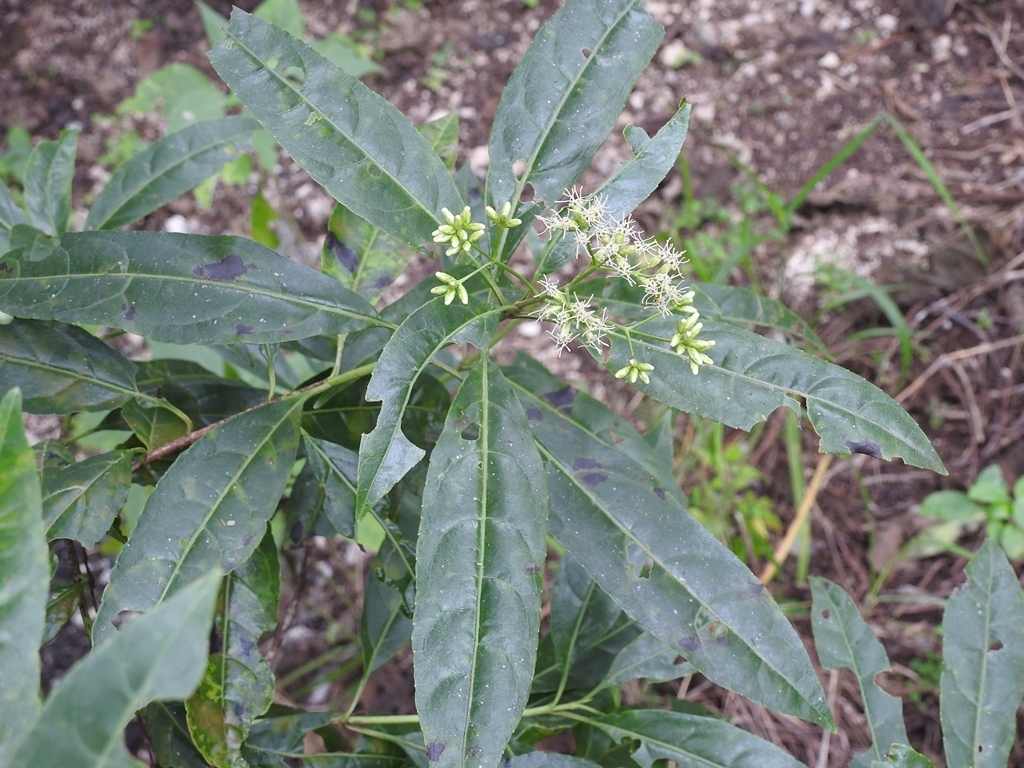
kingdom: Plantae
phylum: Tracheophyta
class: Magnoliopsida
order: Asterales
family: Asteraceae
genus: Critonia
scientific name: Critonia hospitalis
